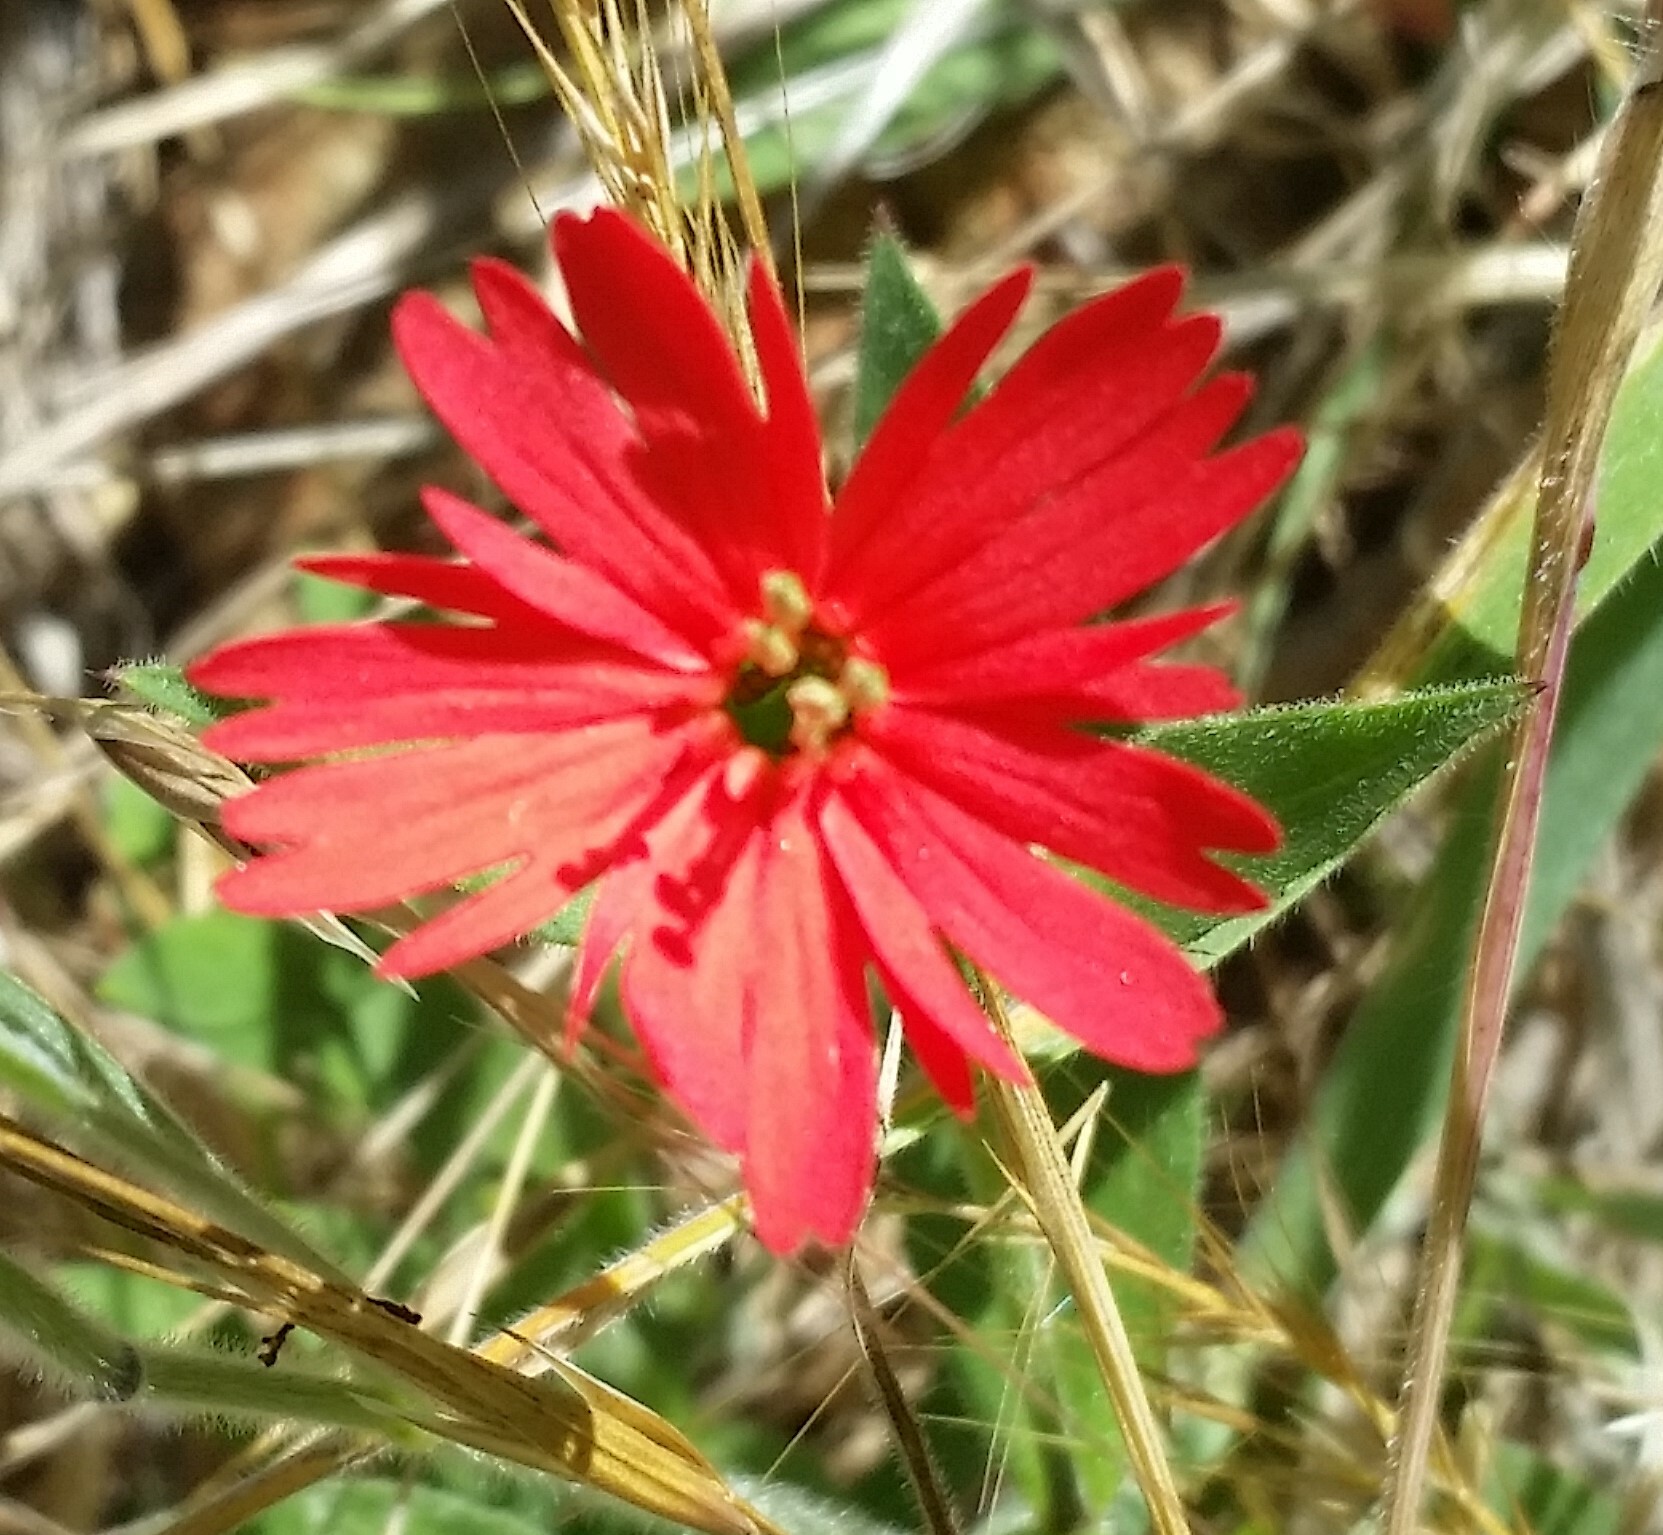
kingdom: Plantae
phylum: Tracheophyta
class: Magnoliopsida
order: Caryophyllales
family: Caryophyllaceae
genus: Silene
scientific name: Silene laciniata
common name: Indian-pink
